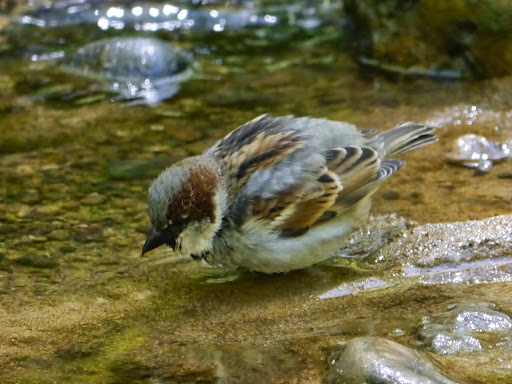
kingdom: Animalia
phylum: Chordata
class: Aves
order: Passeriformes
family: Passeridae
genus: Passer
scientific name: Passer domesticus
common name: House sparrow
